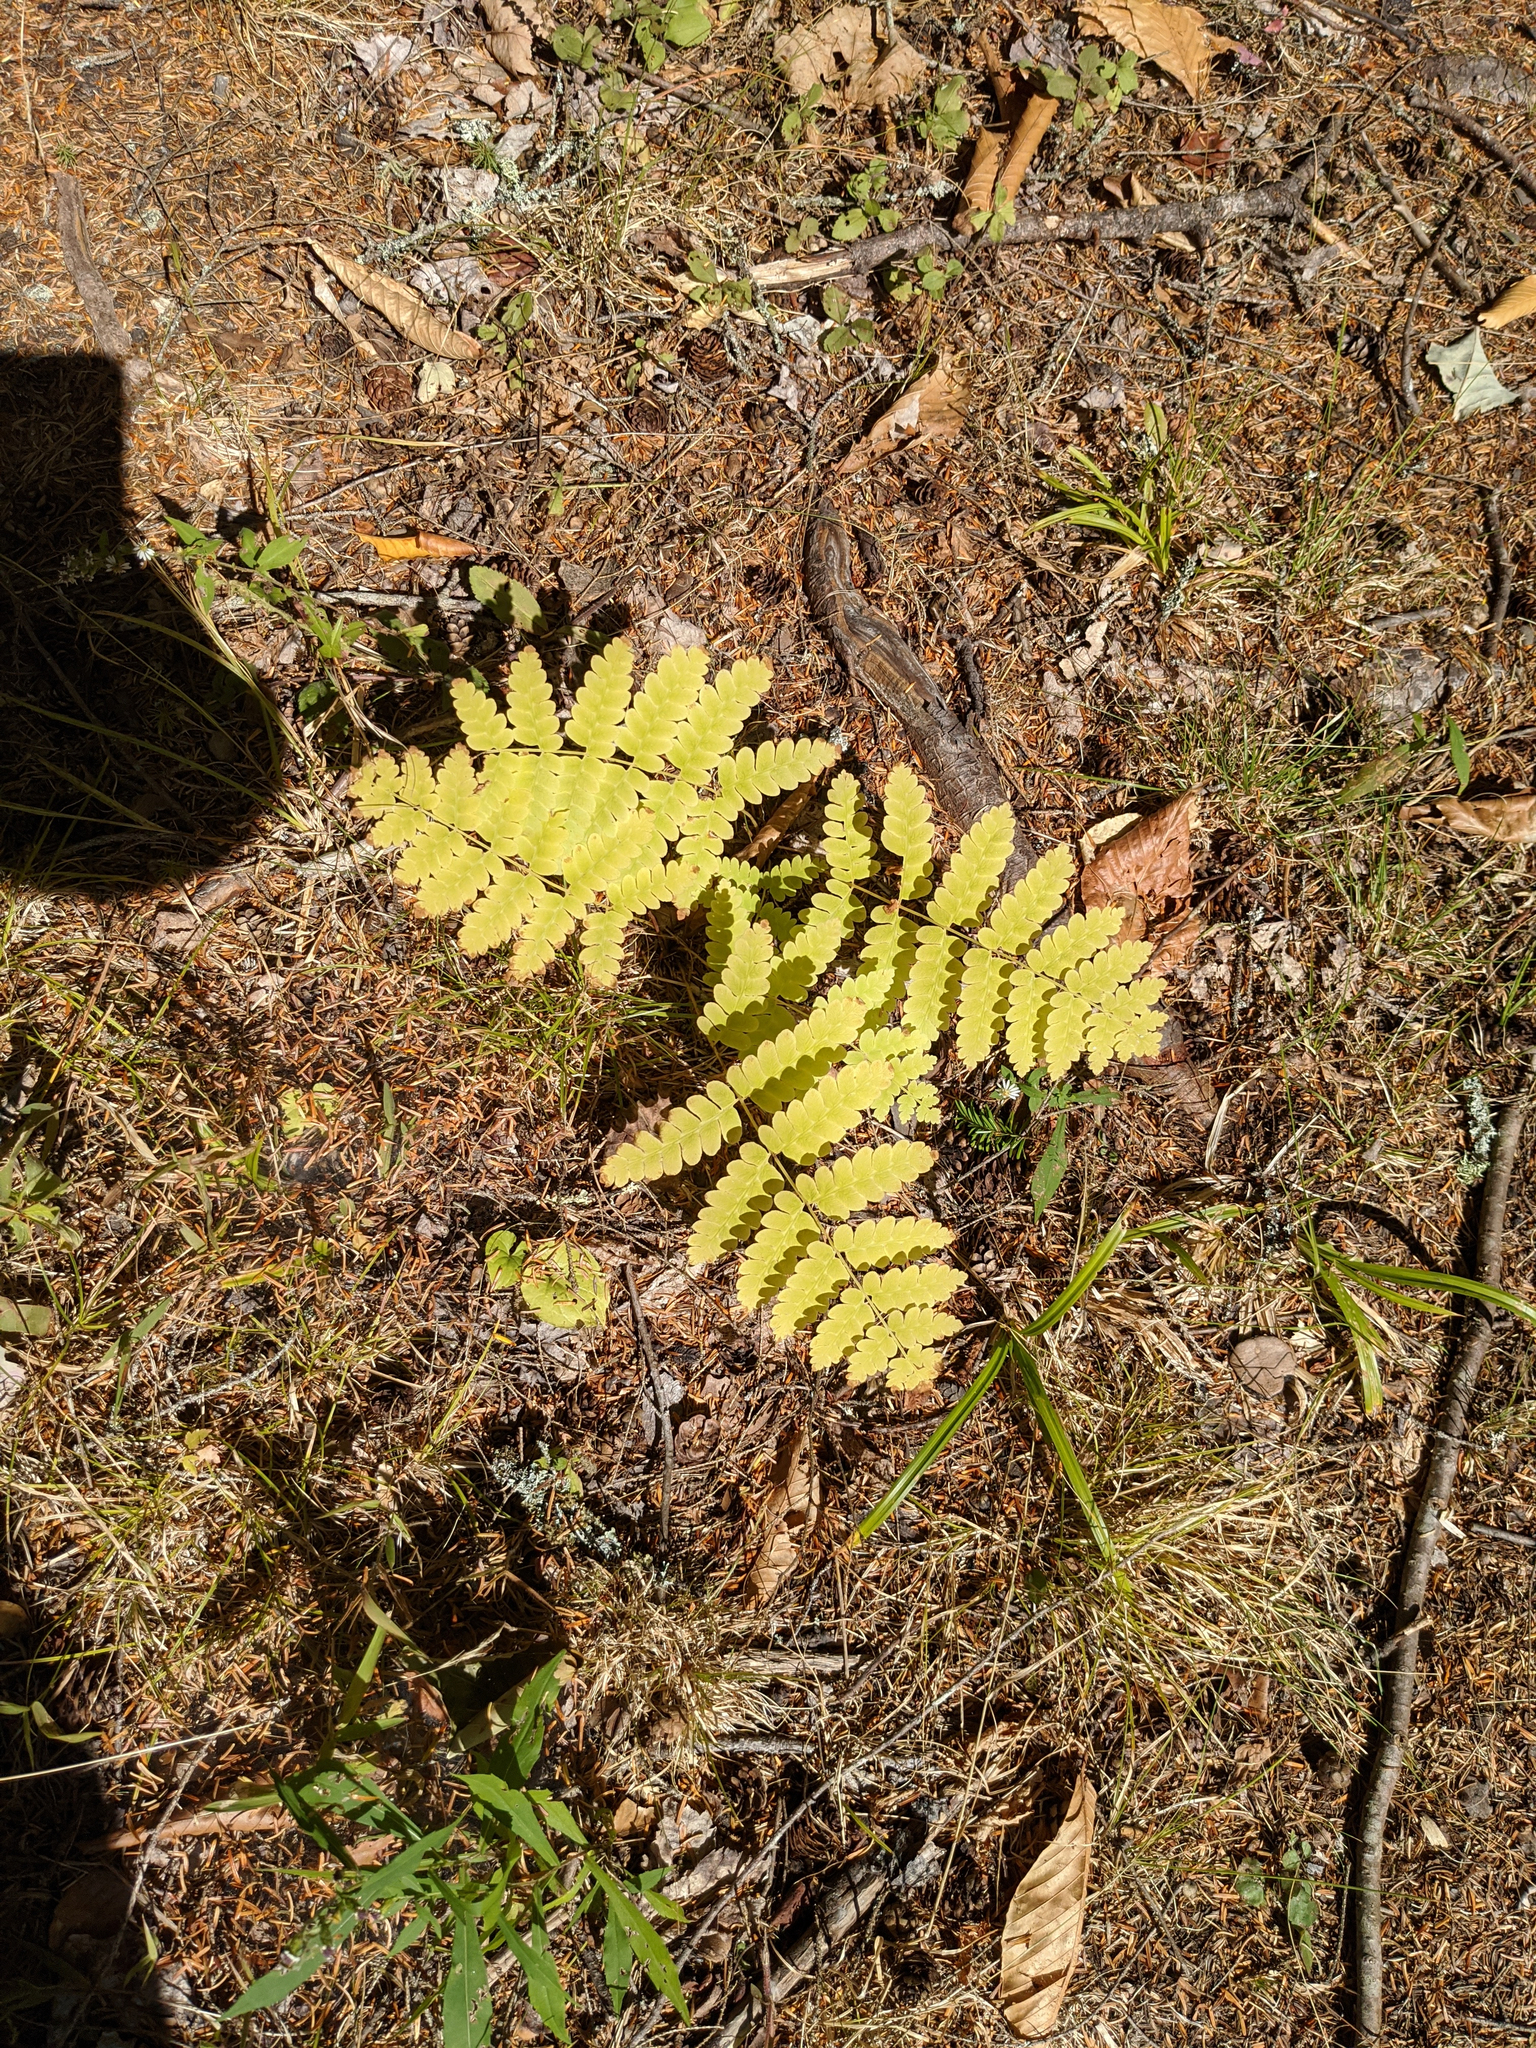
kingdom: Plantae
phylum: Tracheophyta
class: Polypodiopsida
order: Osmundales
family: Osmundaceae
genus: Claytosmunda
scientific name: Claytosmunda claytoniana
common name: Clayton's fern
